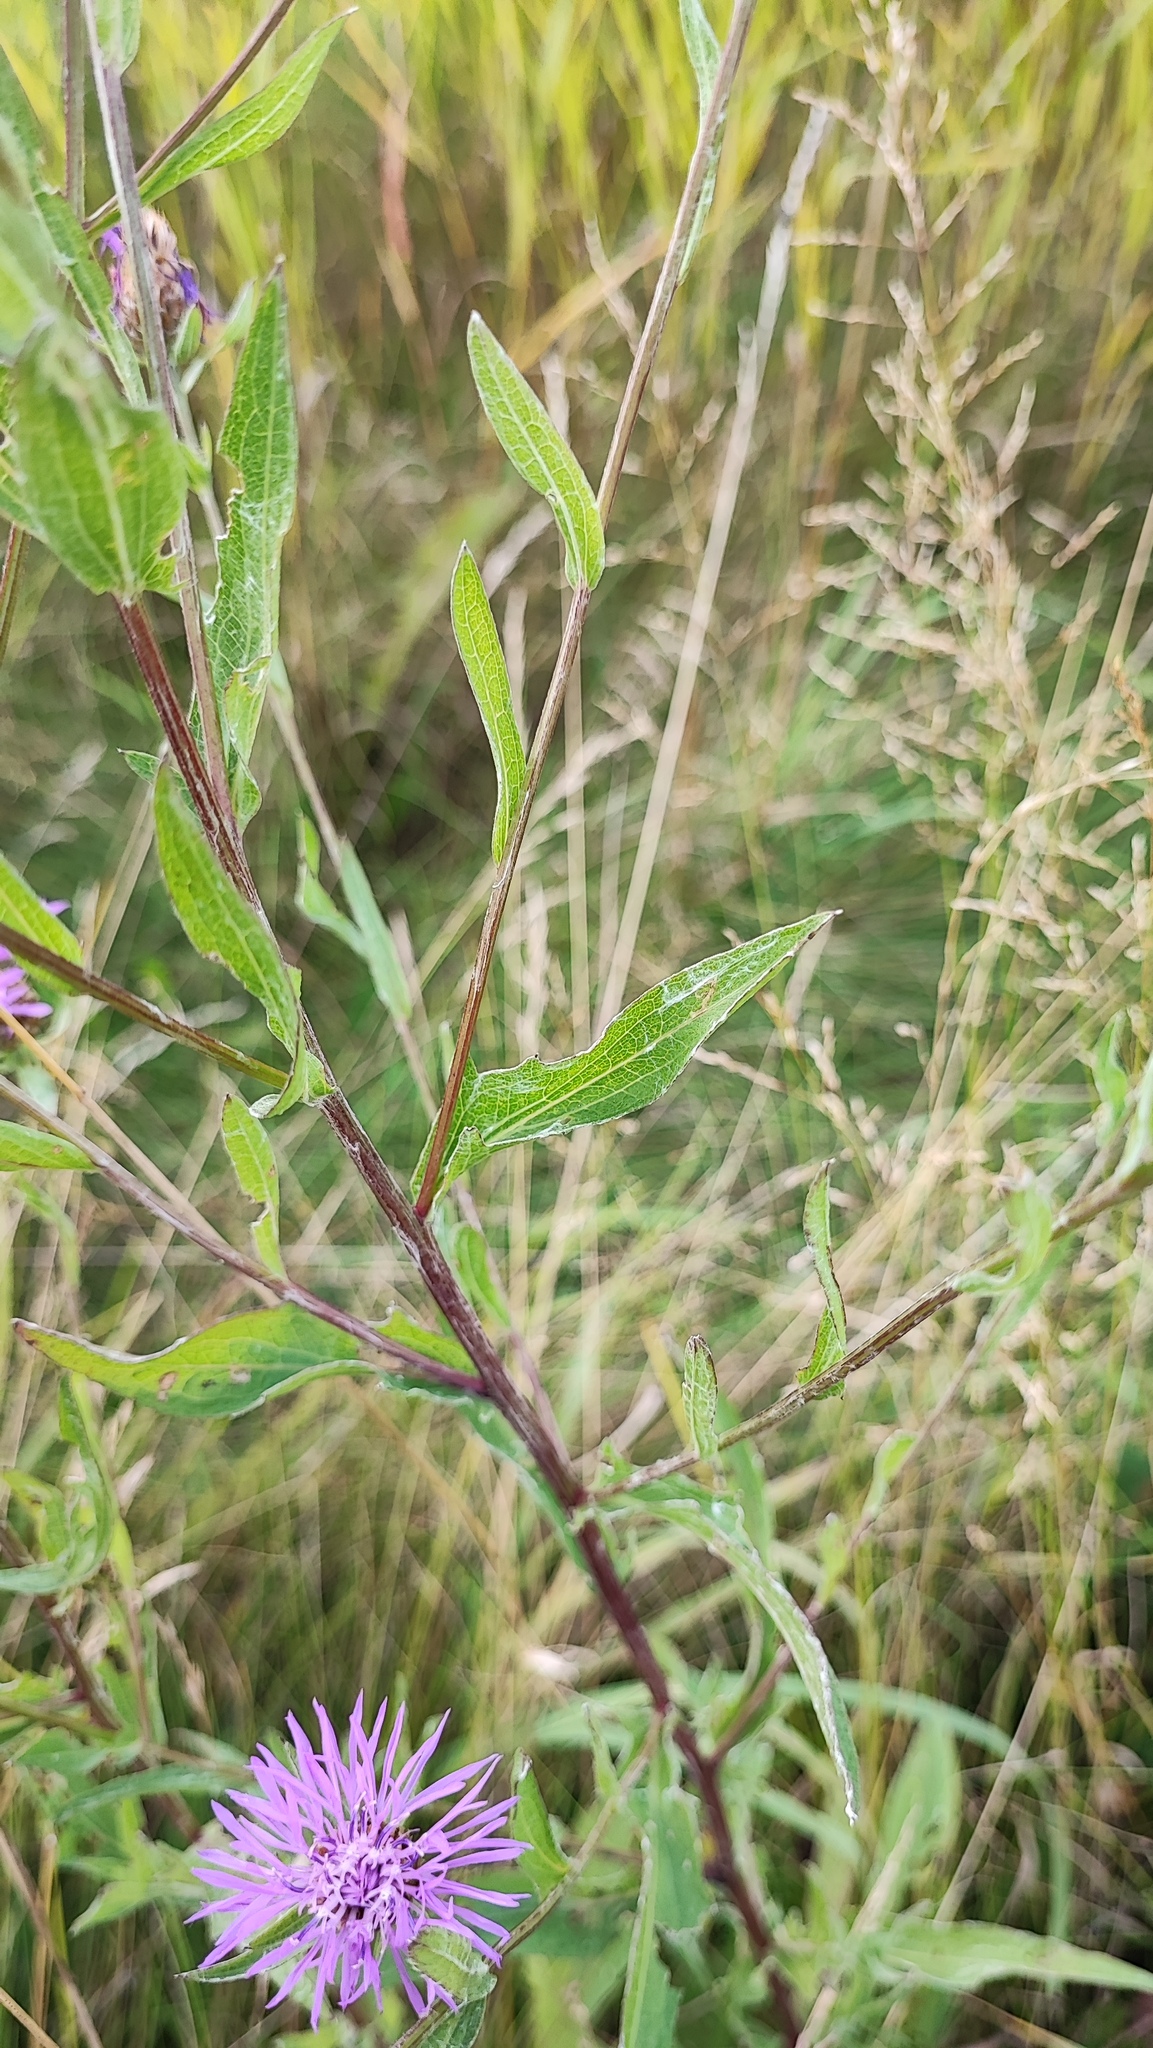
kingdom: Plantae
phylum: Tracheophyta
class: Magnoliopsida
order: Asterales
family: Asteraceae
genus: Centaurea
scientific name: Centaurea jacea
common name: Brown knapweed
